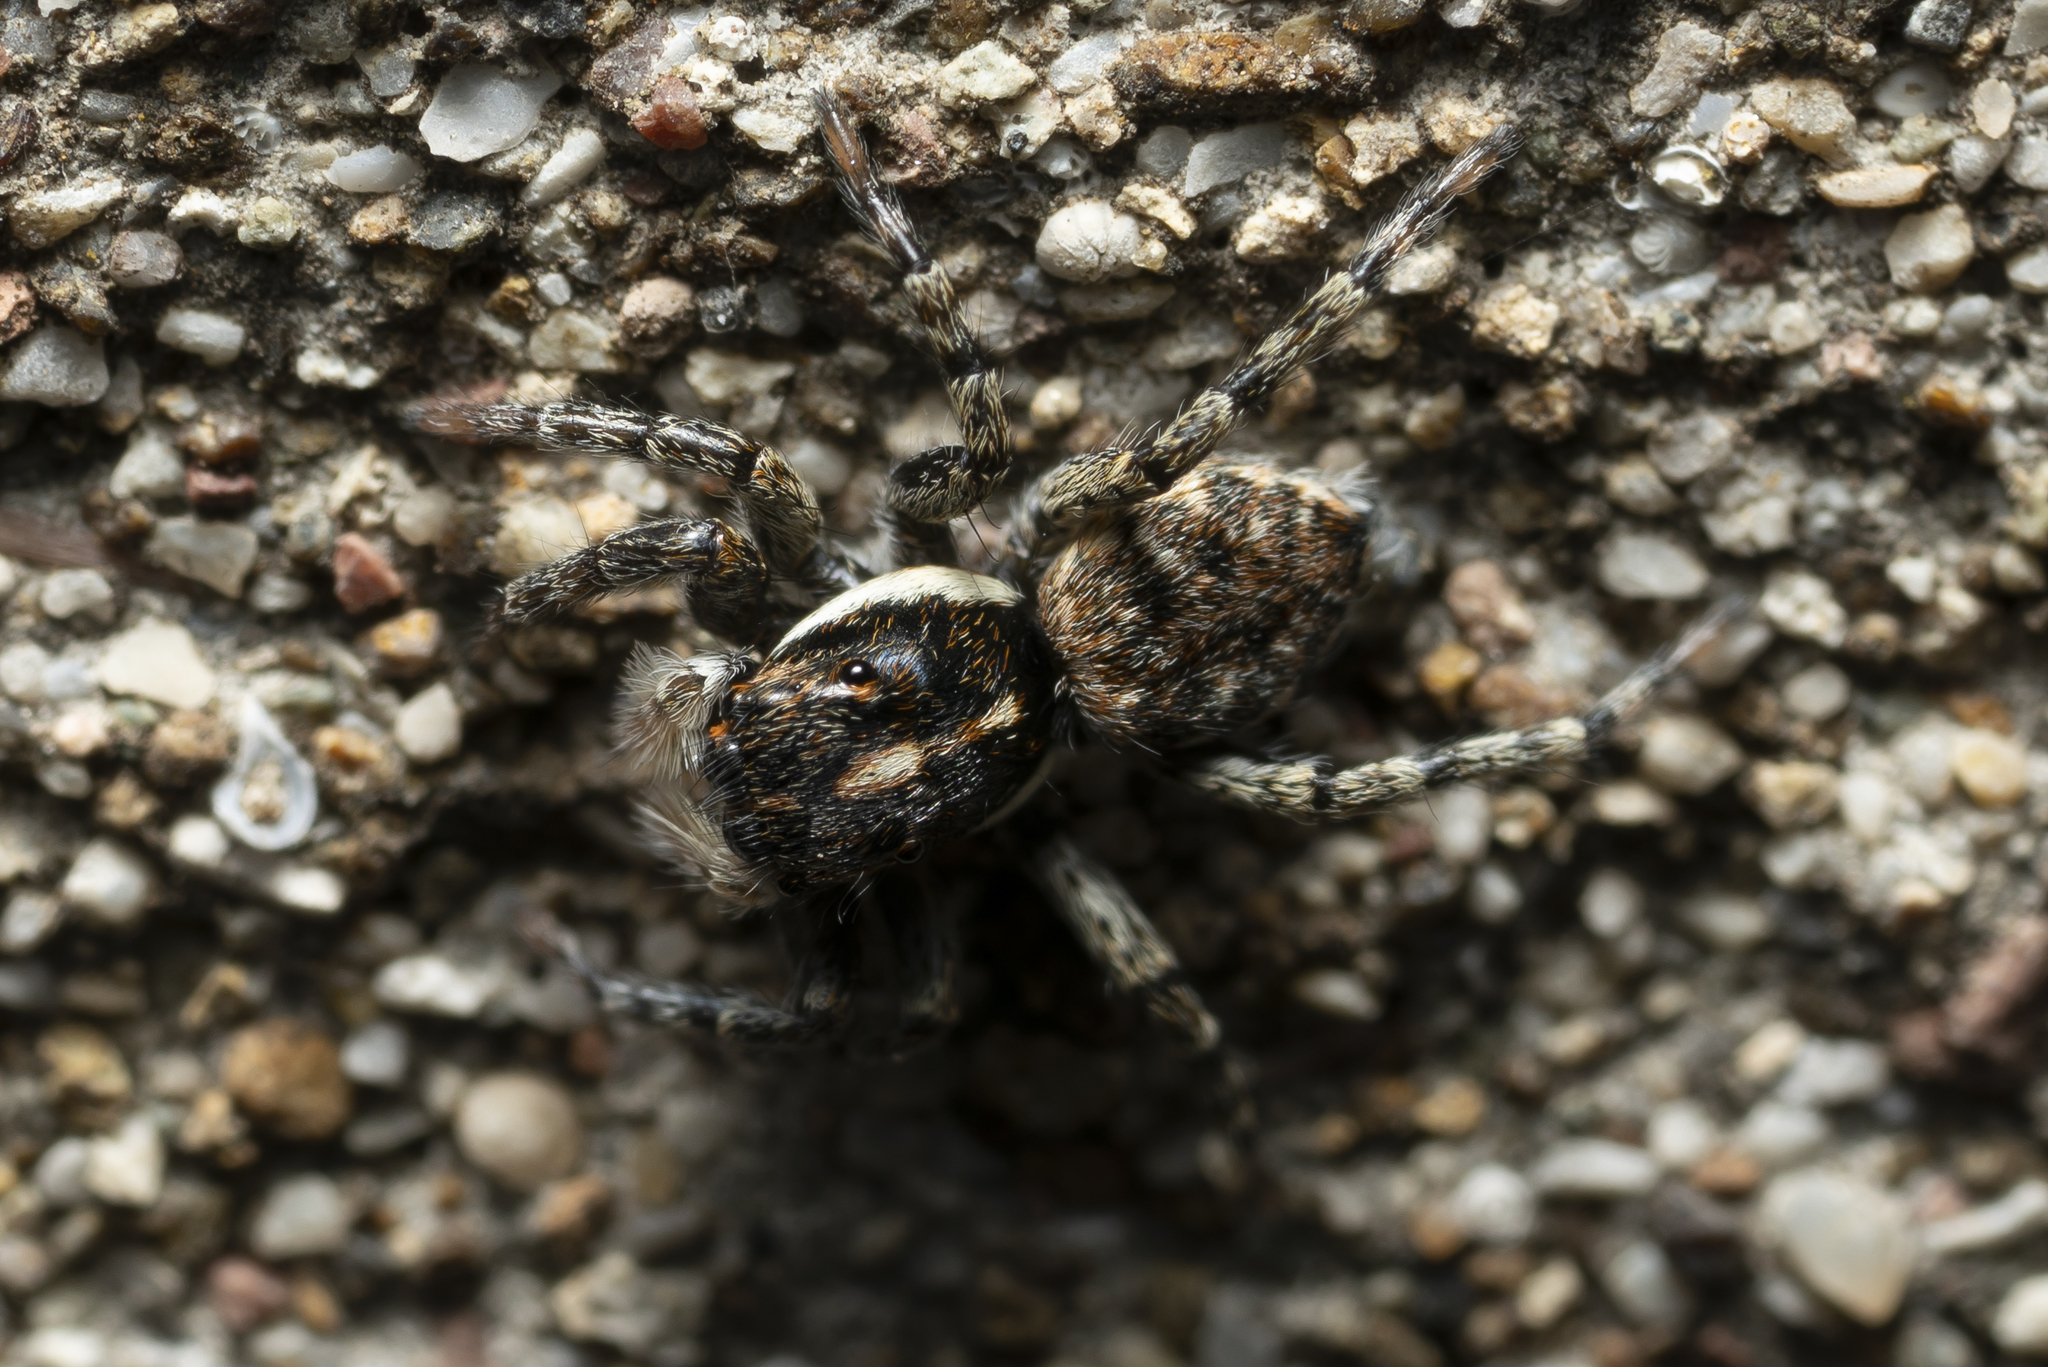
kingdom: Animalia
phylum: Arthropoda
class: Arachnida
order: Araneae
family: Salticidae
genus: Menemerus
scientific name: Menemerus semilimbatus
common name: Jumping spider
